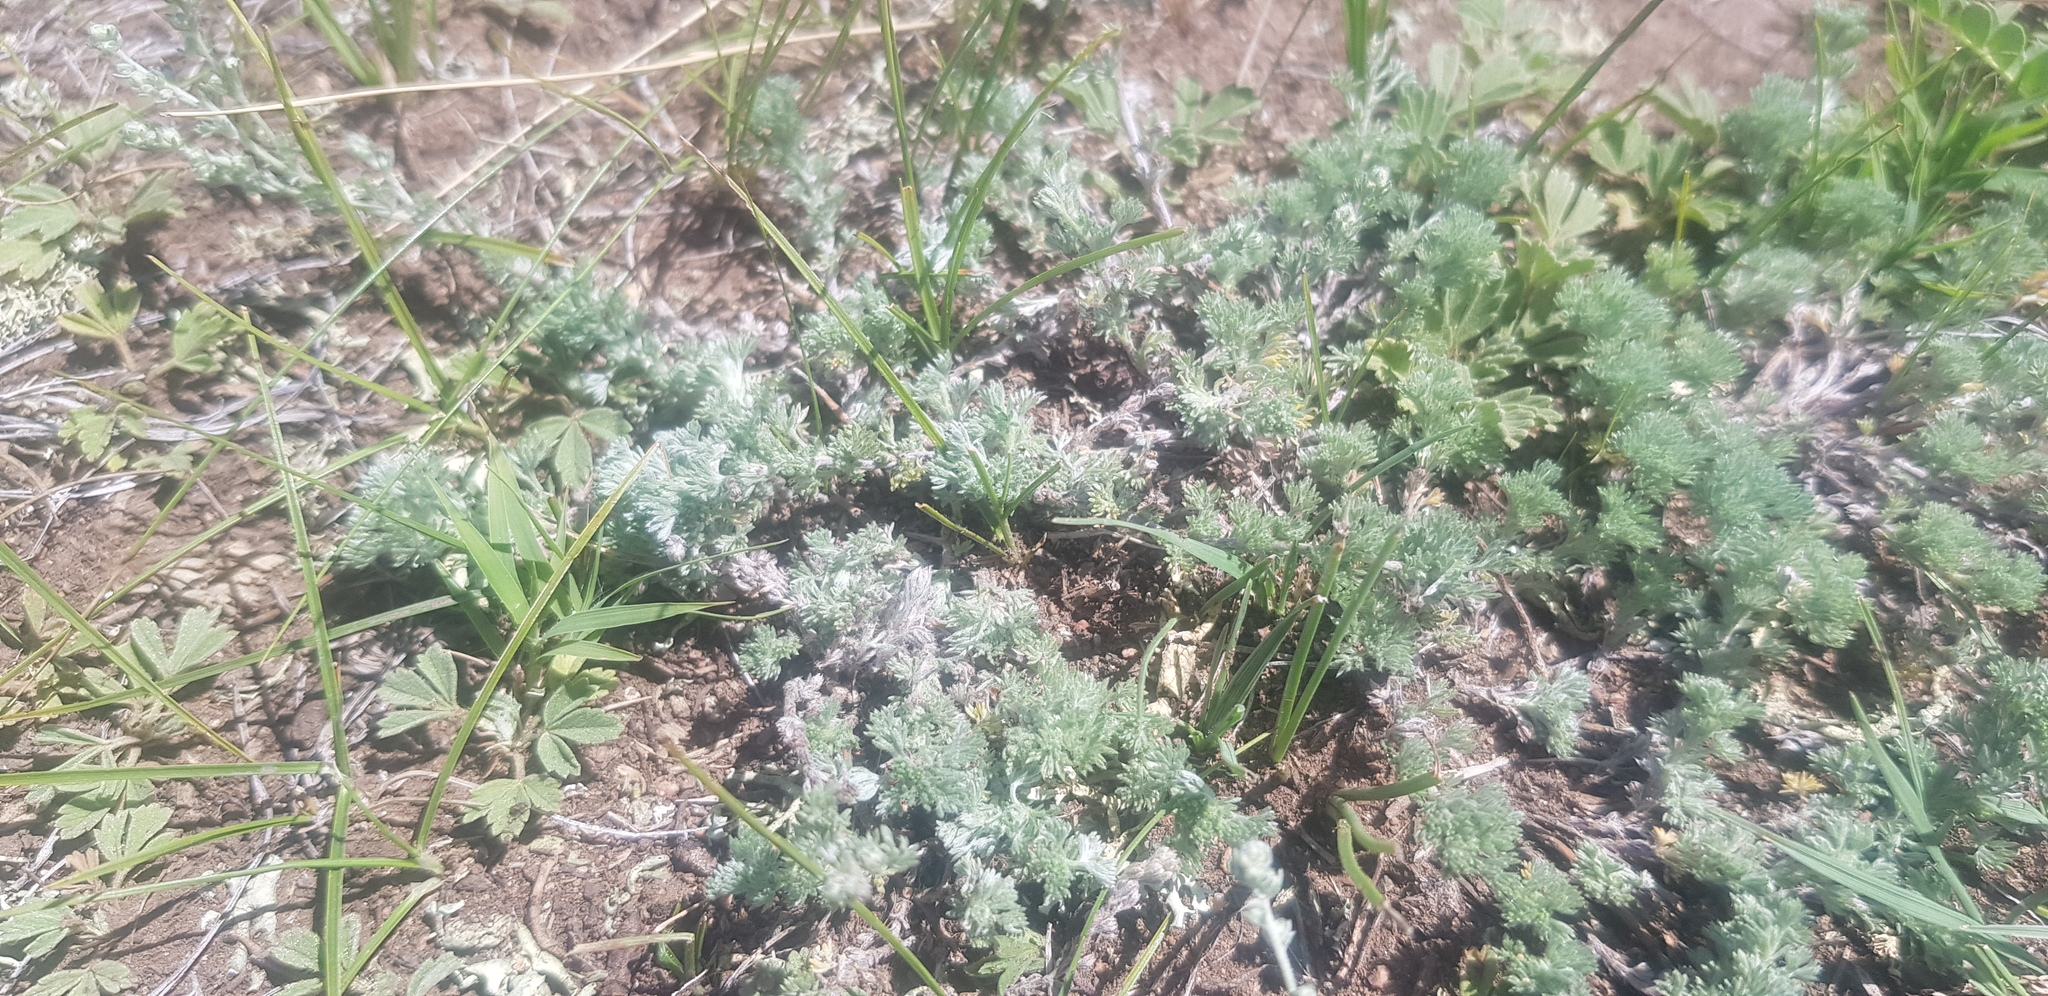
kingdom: Plantae
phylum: Tracheophyta
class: Magnoliopsida
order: Asterales
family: Asteraceae
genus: Artemisia
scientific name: Artemisia frigida
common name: Prairie sagewort
